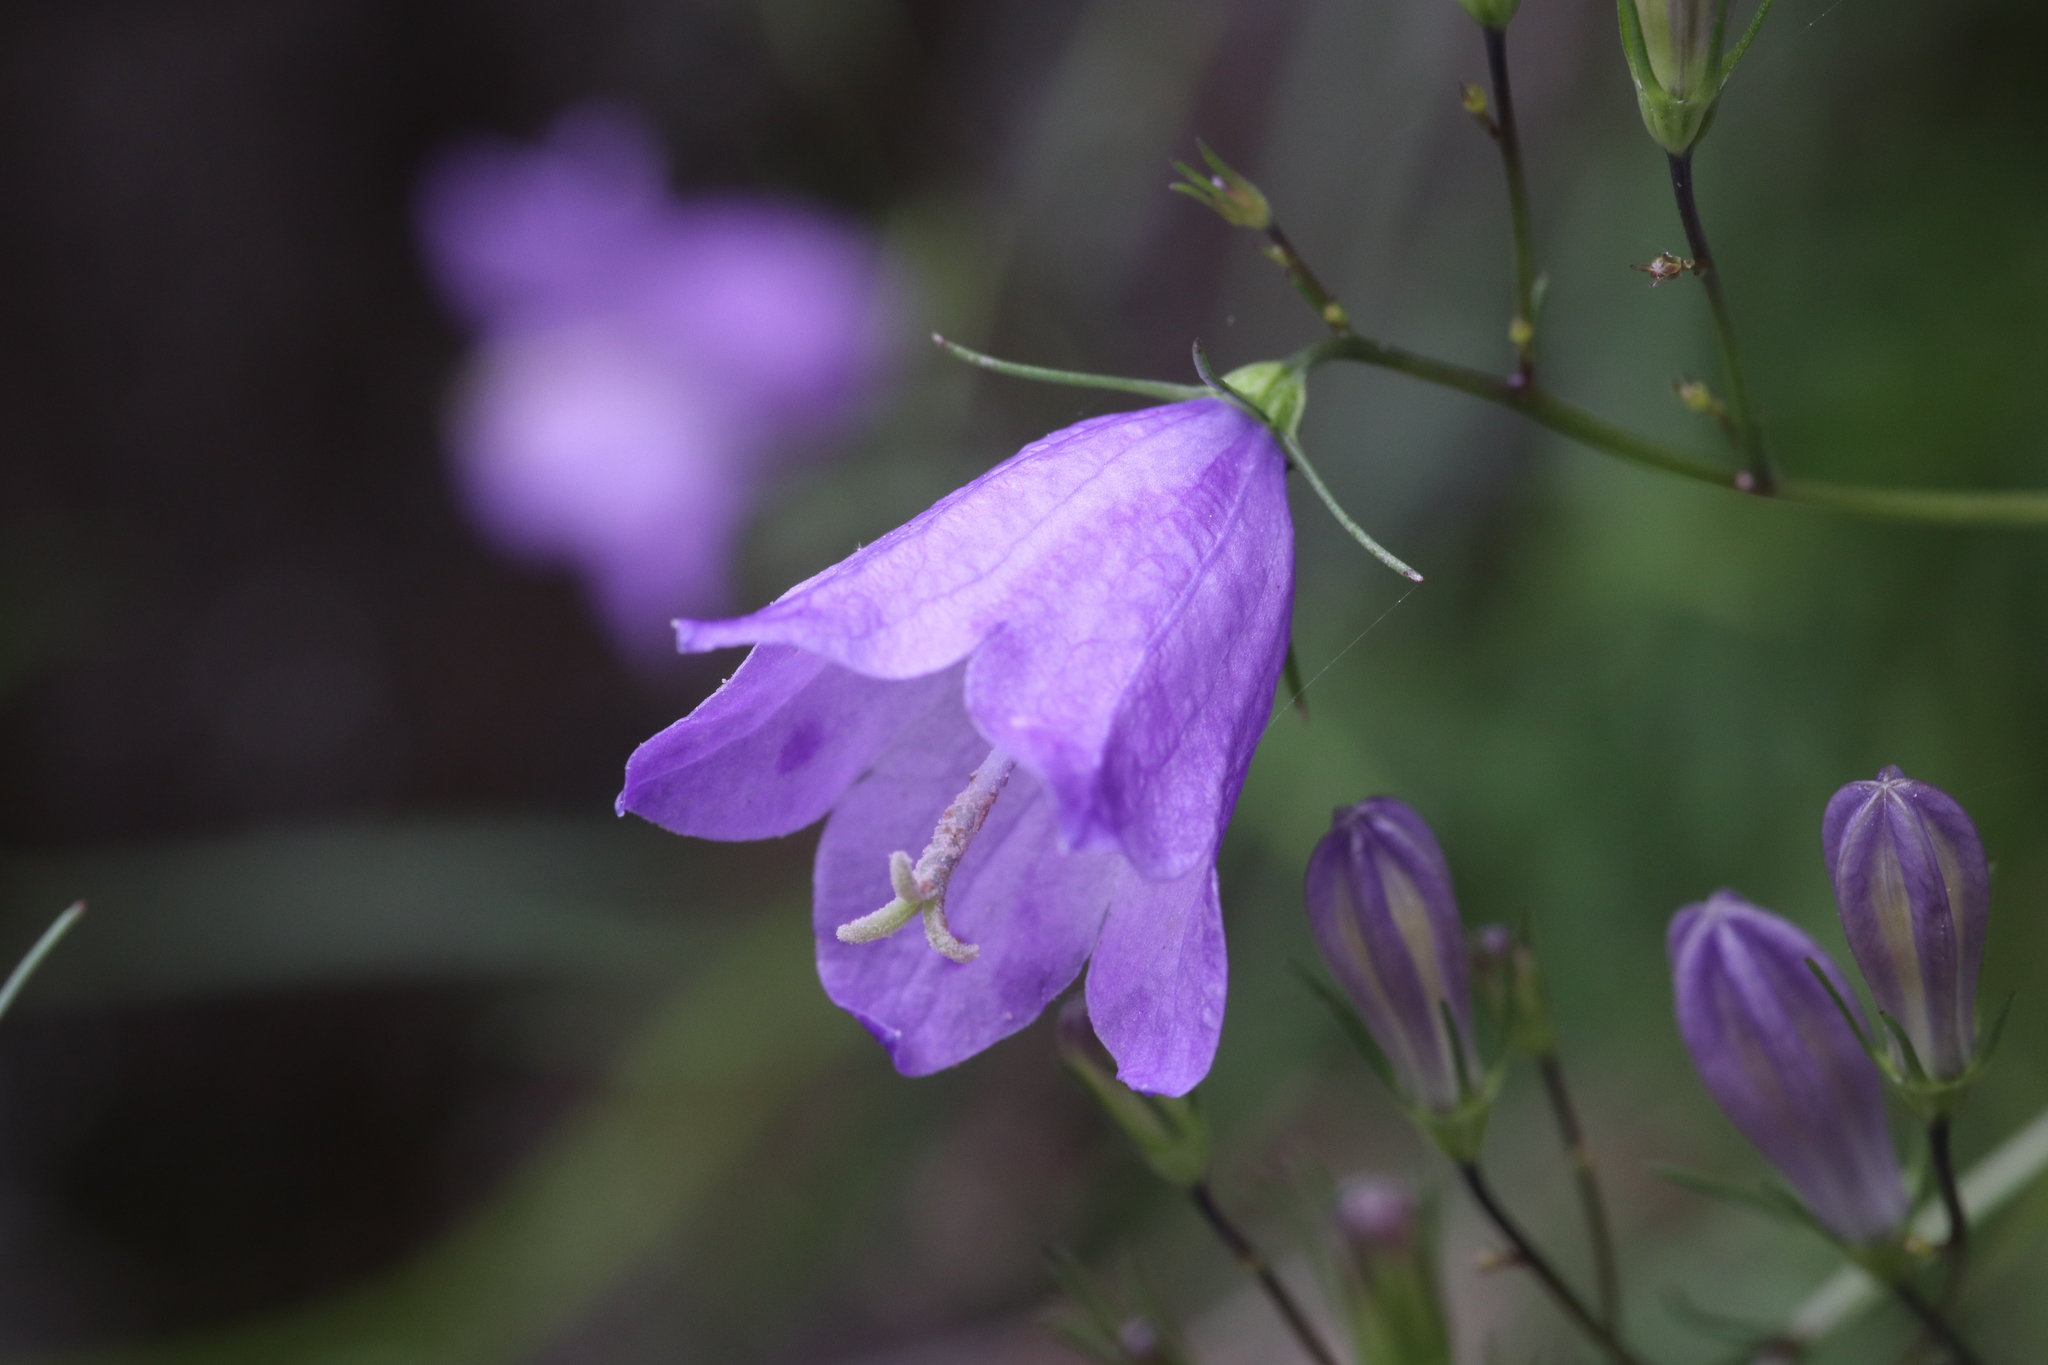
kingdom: Plantae
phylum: Tracheophyta
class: Magnoliopsida
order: Asterales
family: Campanulaceae
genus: Campanula
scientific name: Campanula rotundifolia
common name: Harebell
